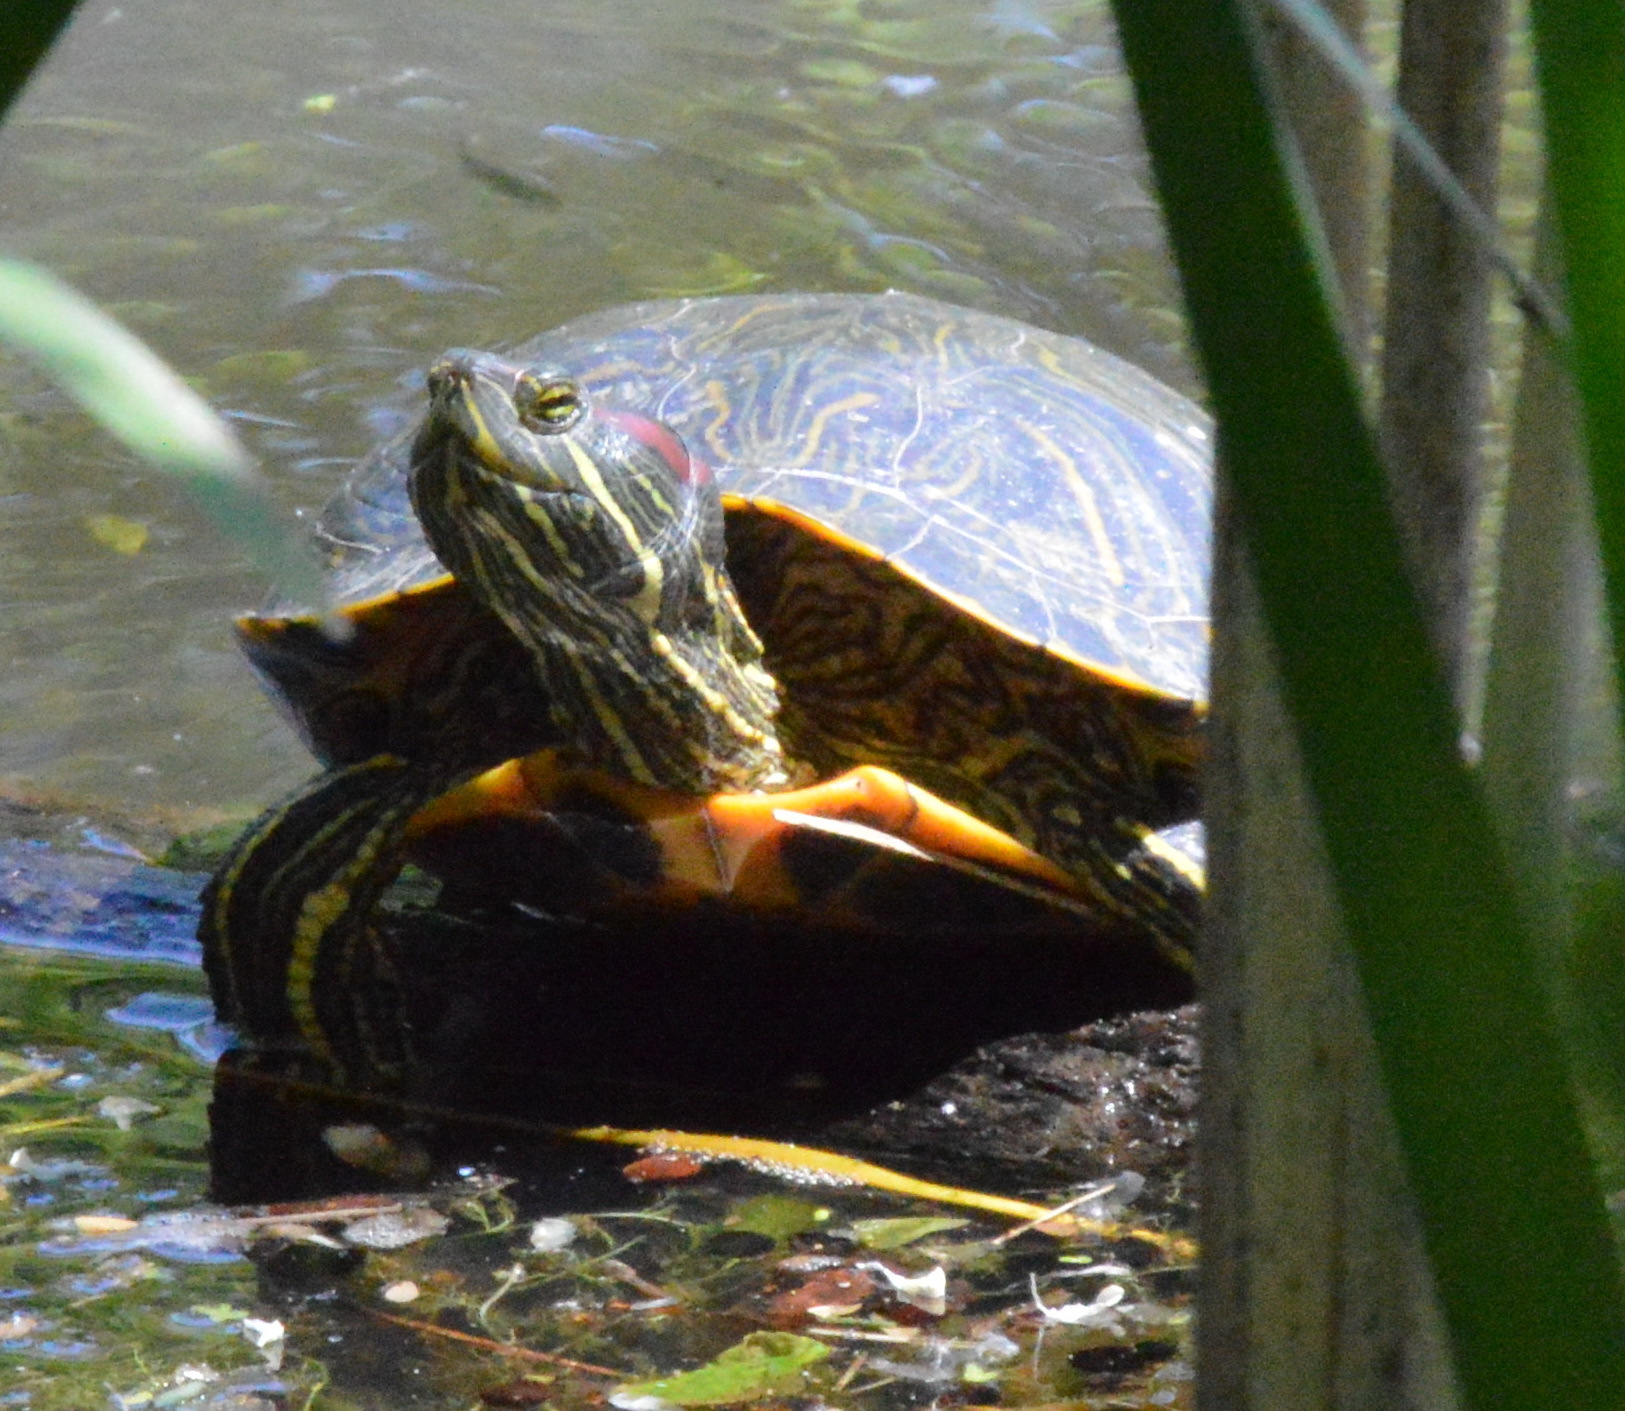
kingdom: Animalia
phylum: Chordata
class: Testudines
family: Emydidae
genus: Trachemys
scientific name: Trachemys scripta
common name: Slider
